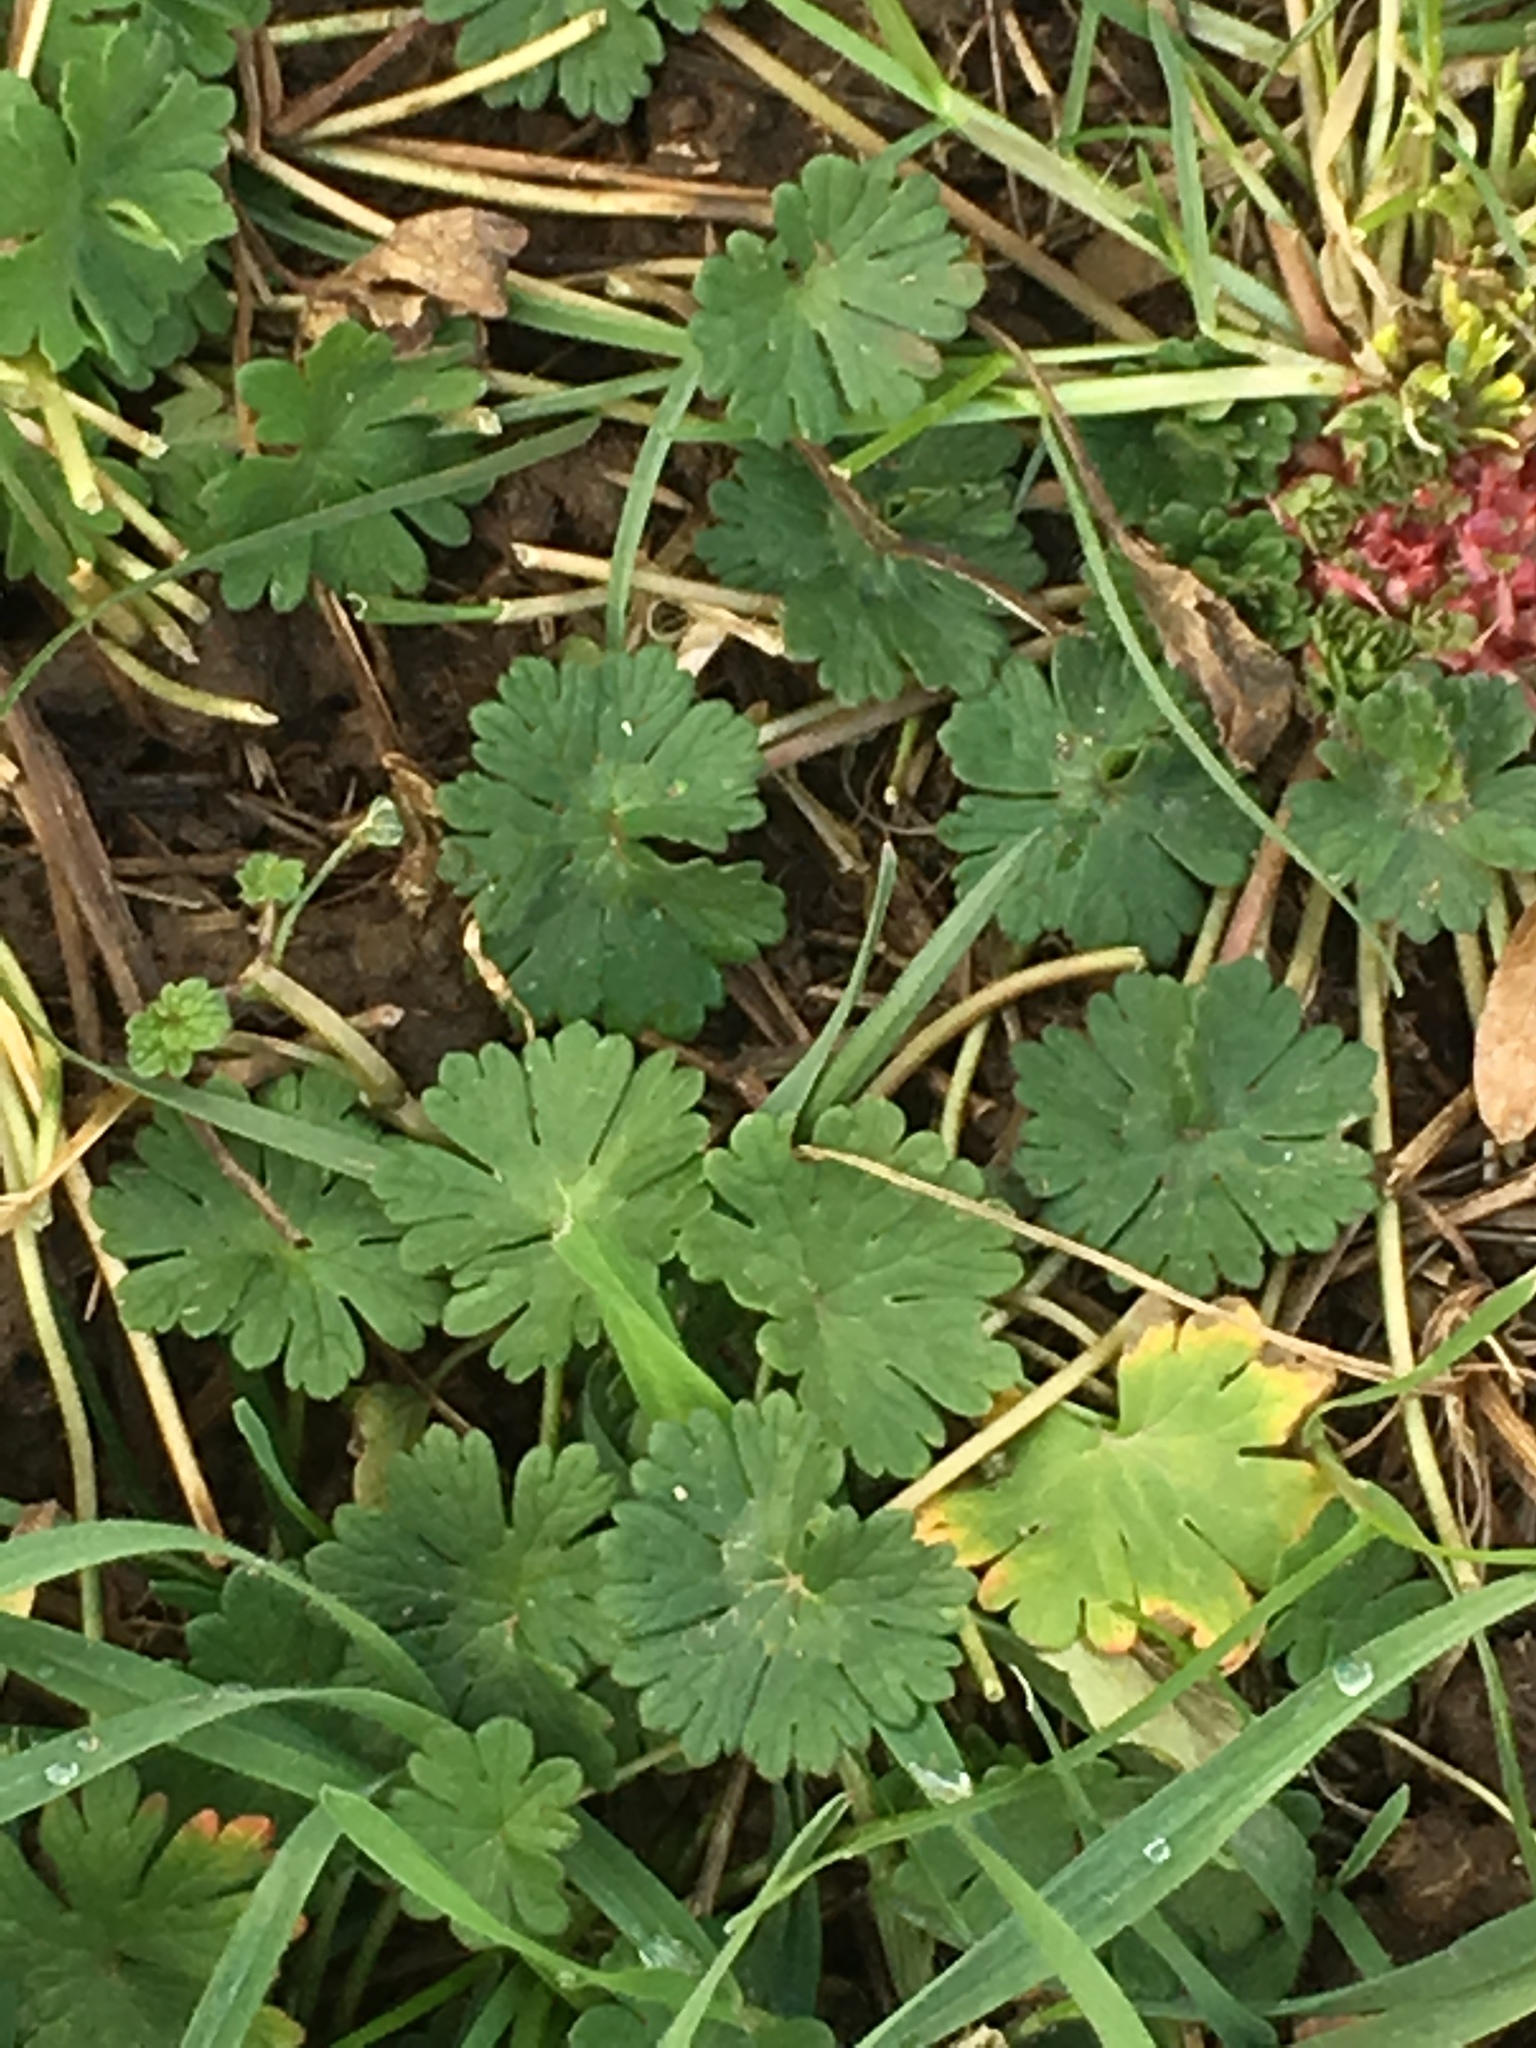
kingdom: Plantae
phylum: Tracheophyta
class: Magnoliopsida
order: Geraniales
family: Geraniaceae
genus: Geranium
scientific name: Geranium molle
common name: Dove's-foot crane's-bill
